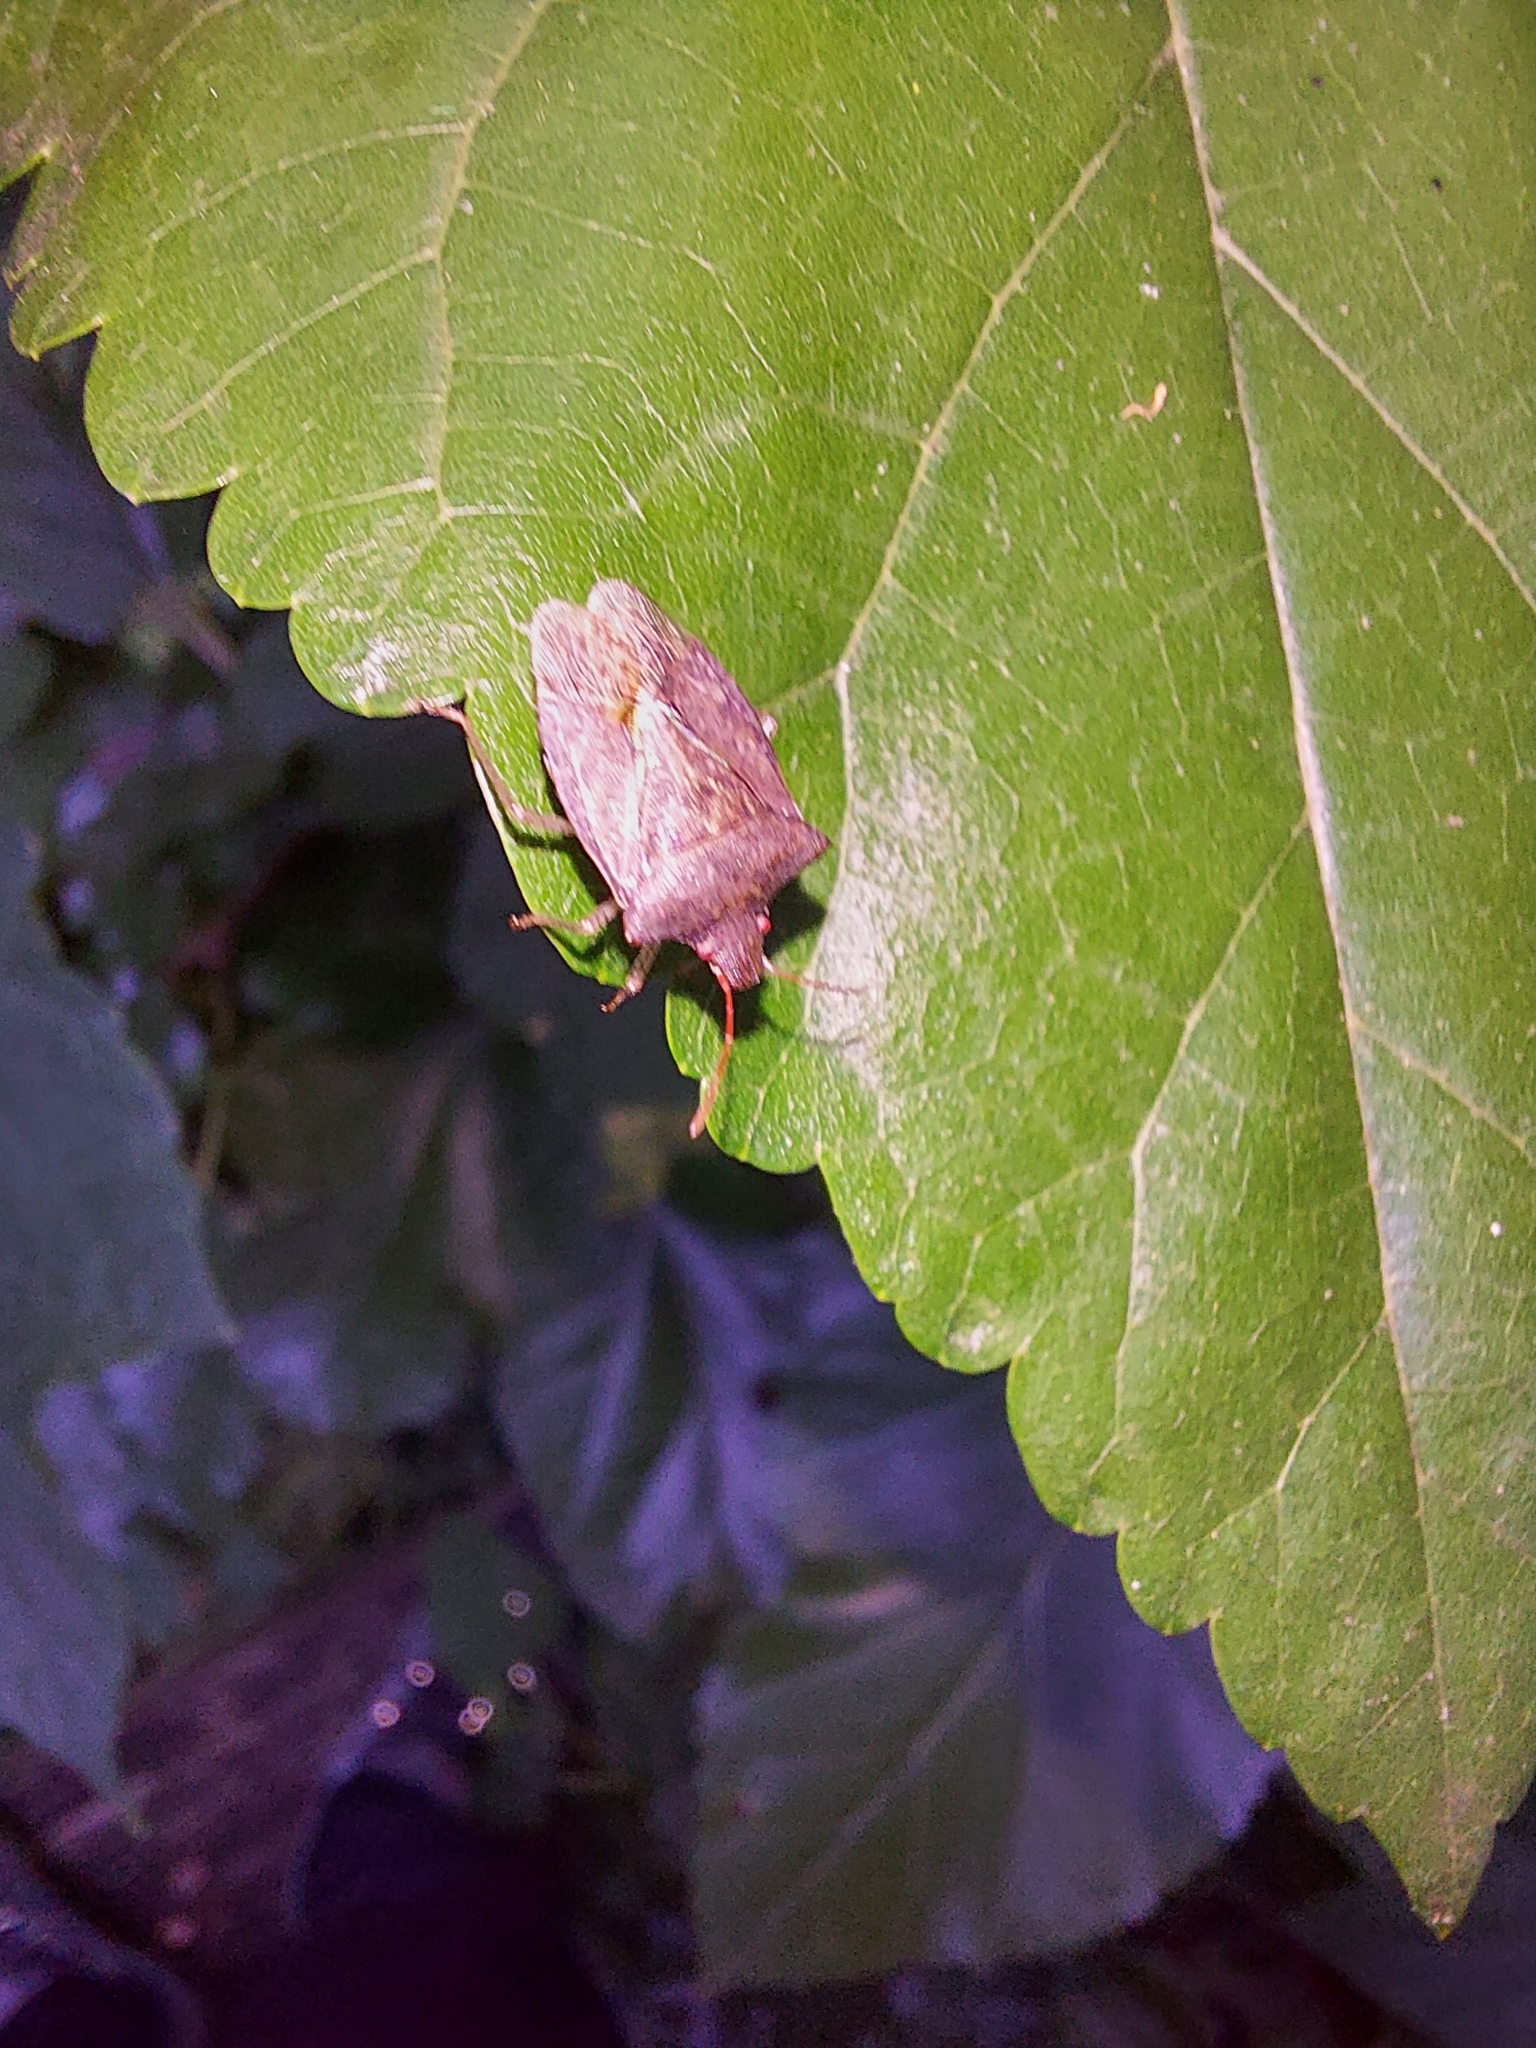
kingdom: Animalia
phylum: Arthropoda
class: Insecta
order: Hemiptera
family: Pentatomidae
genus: Euschistus
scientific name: Euschistus servus
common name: Brown stink bug
